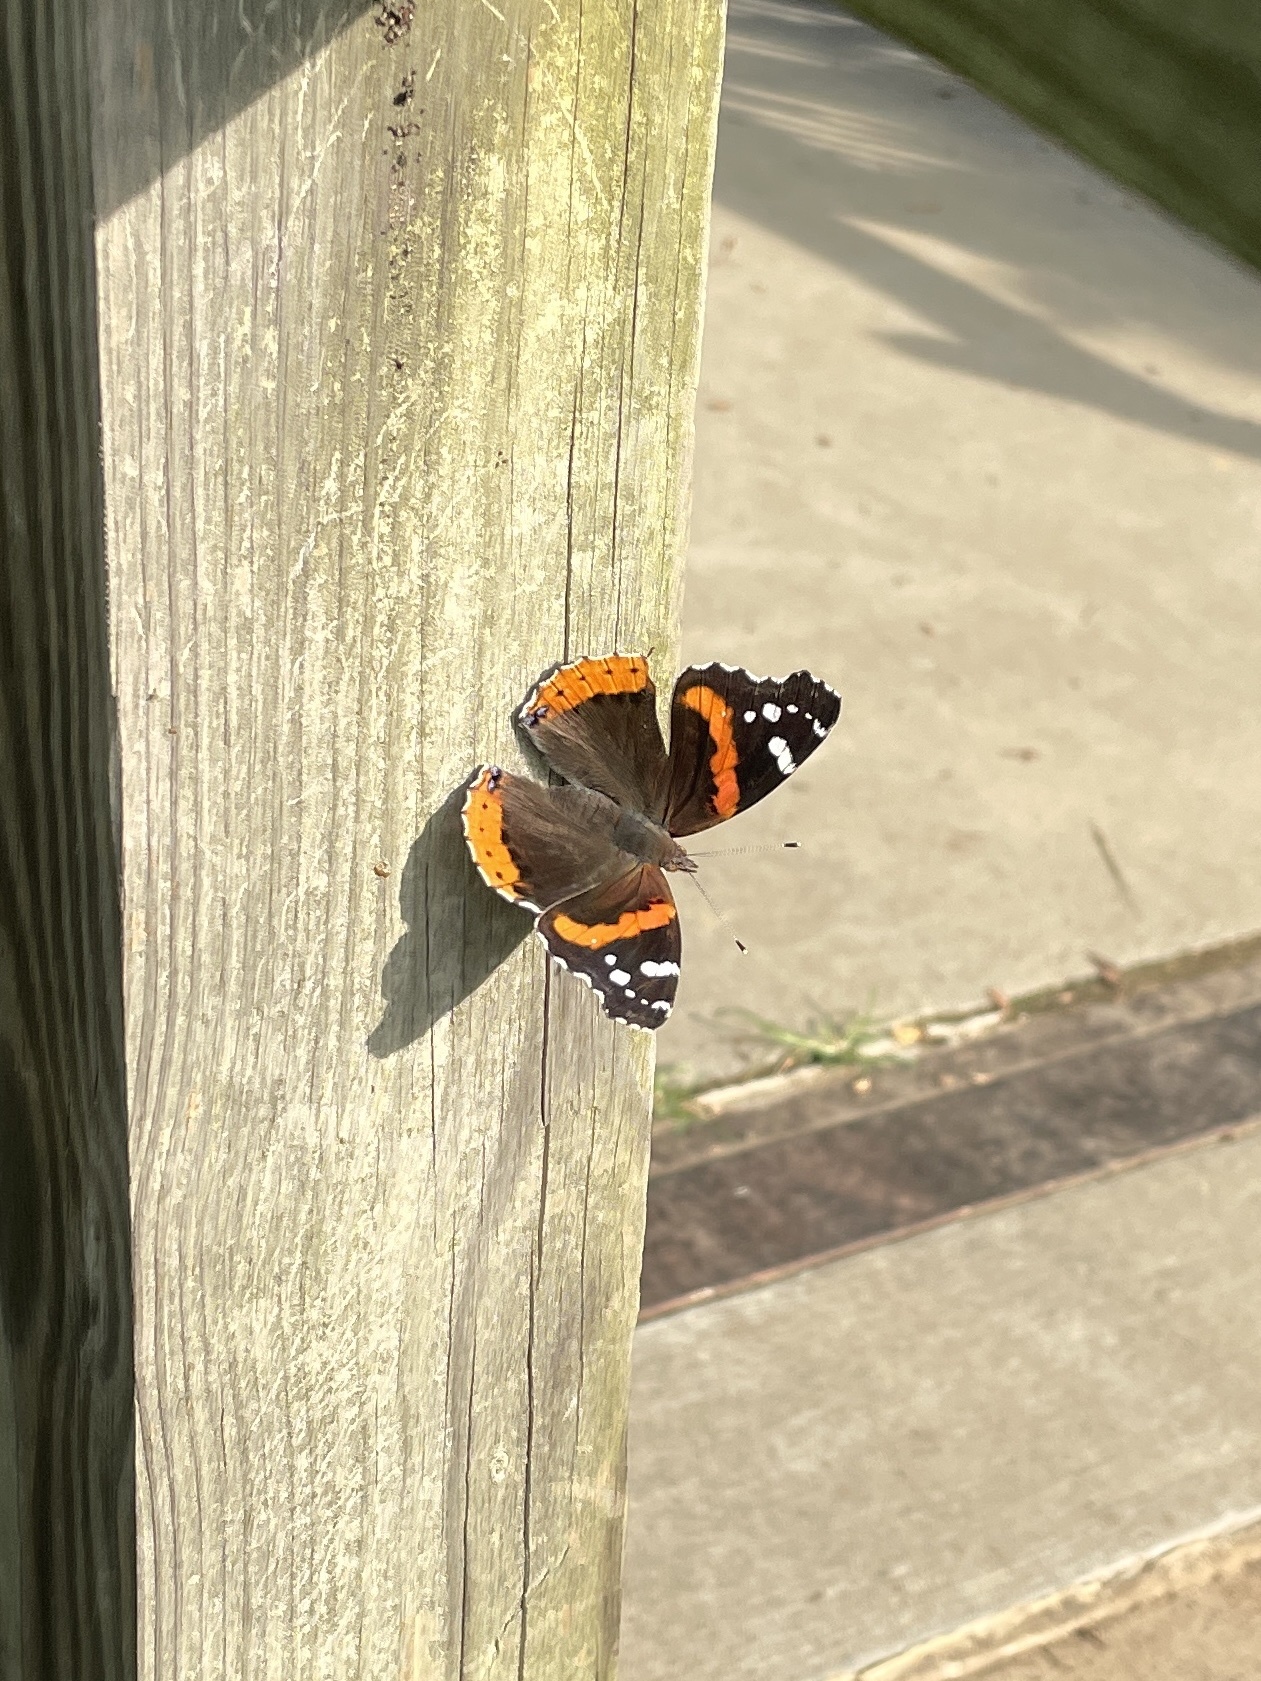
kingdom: Animalia
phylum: Arthropoda
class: Insecta
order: Lepidoptera
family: Nymphalidae
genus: Vanessa
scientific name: Vanessa atalanta
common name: Red admiral
